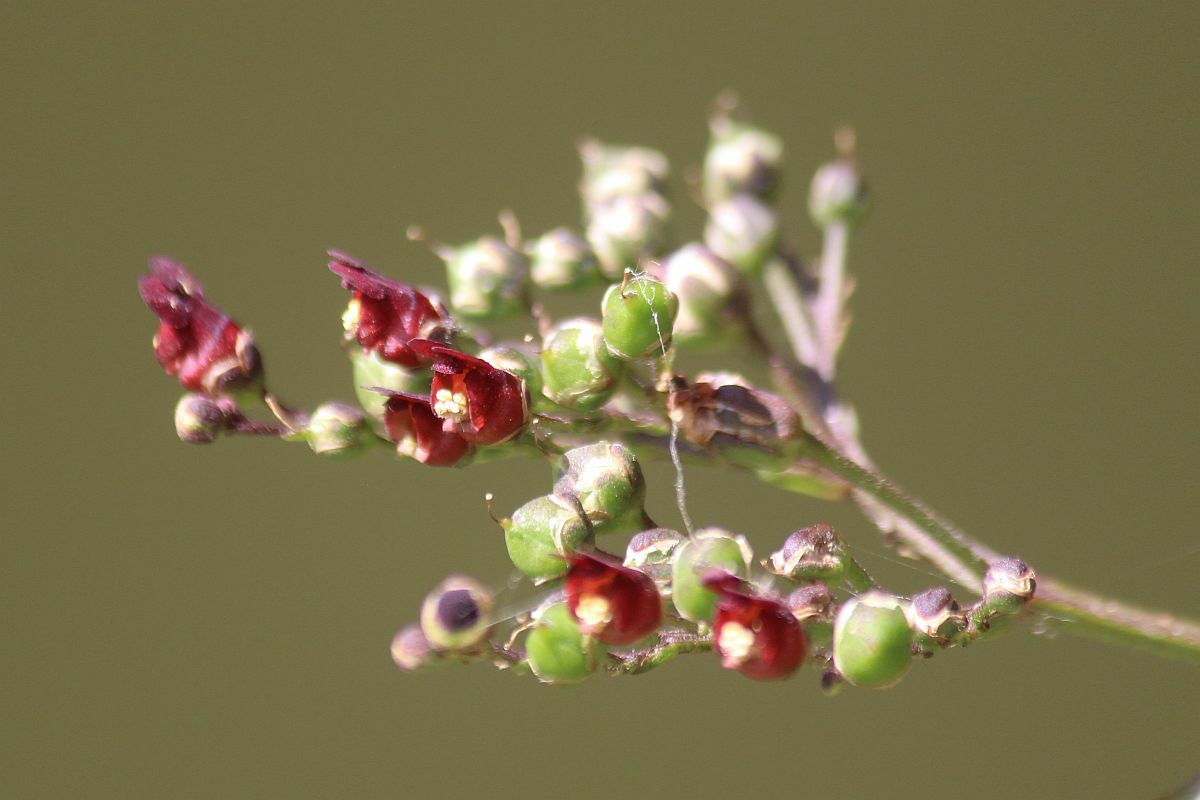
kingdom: Plantae
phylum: Tracheophyta
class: Magnoliopsida
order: Lamiales
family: Scrophulariaceae
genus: Scrophularia
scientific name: Scrophularia auriculata
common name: Water betony
